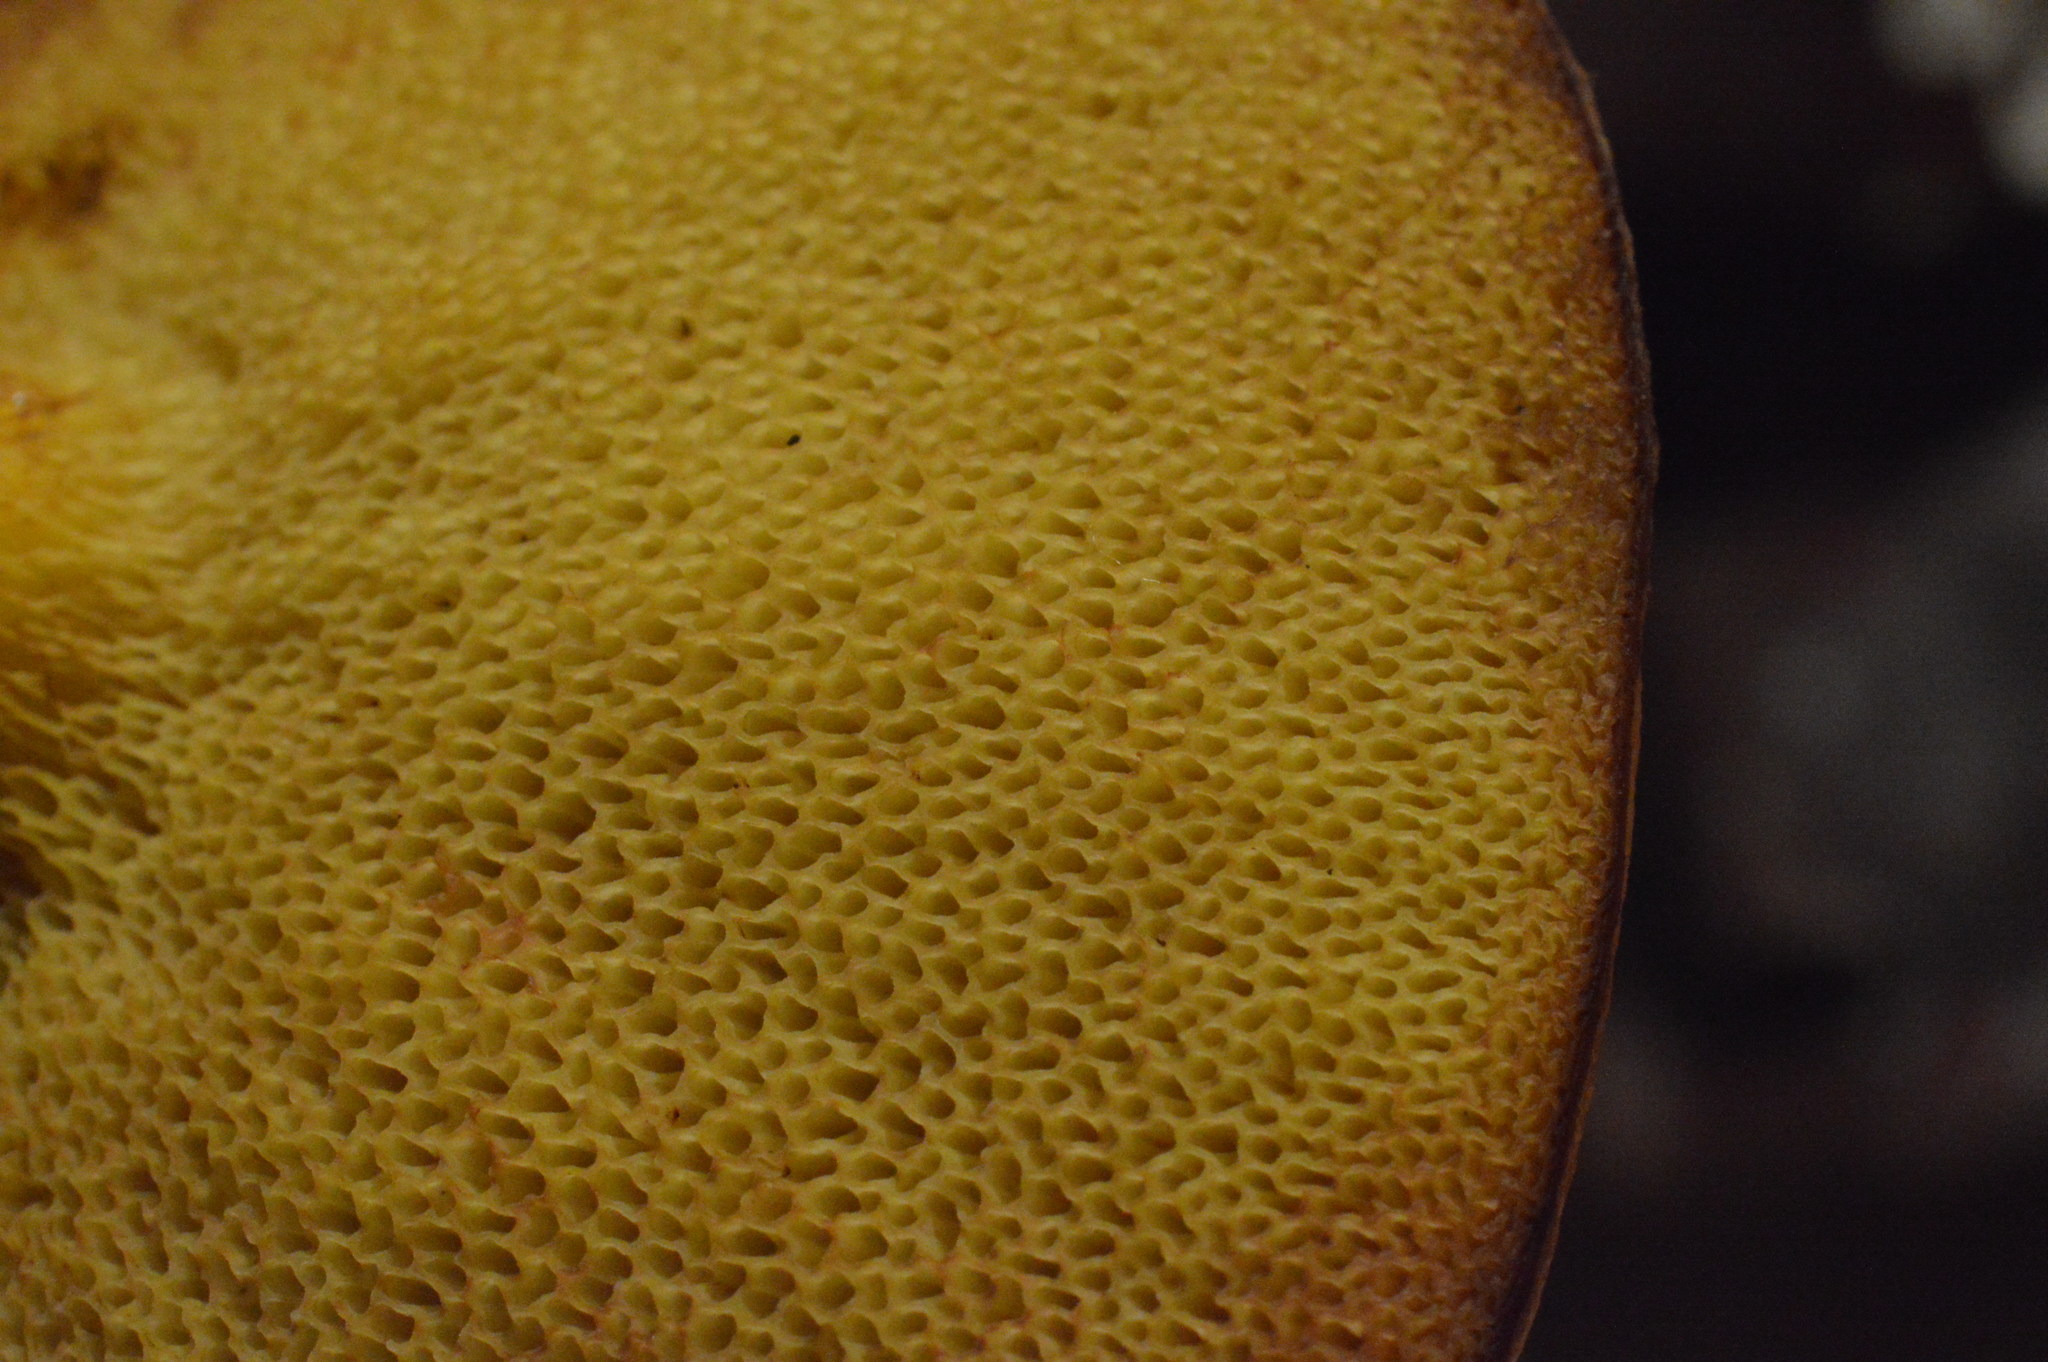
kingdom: Fungi
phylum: Basidiomycota
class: Agaricomycetes
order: Boletales
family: Suillaceae
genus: Suillus
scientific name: Suillus grevillei
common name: Larch bolete
